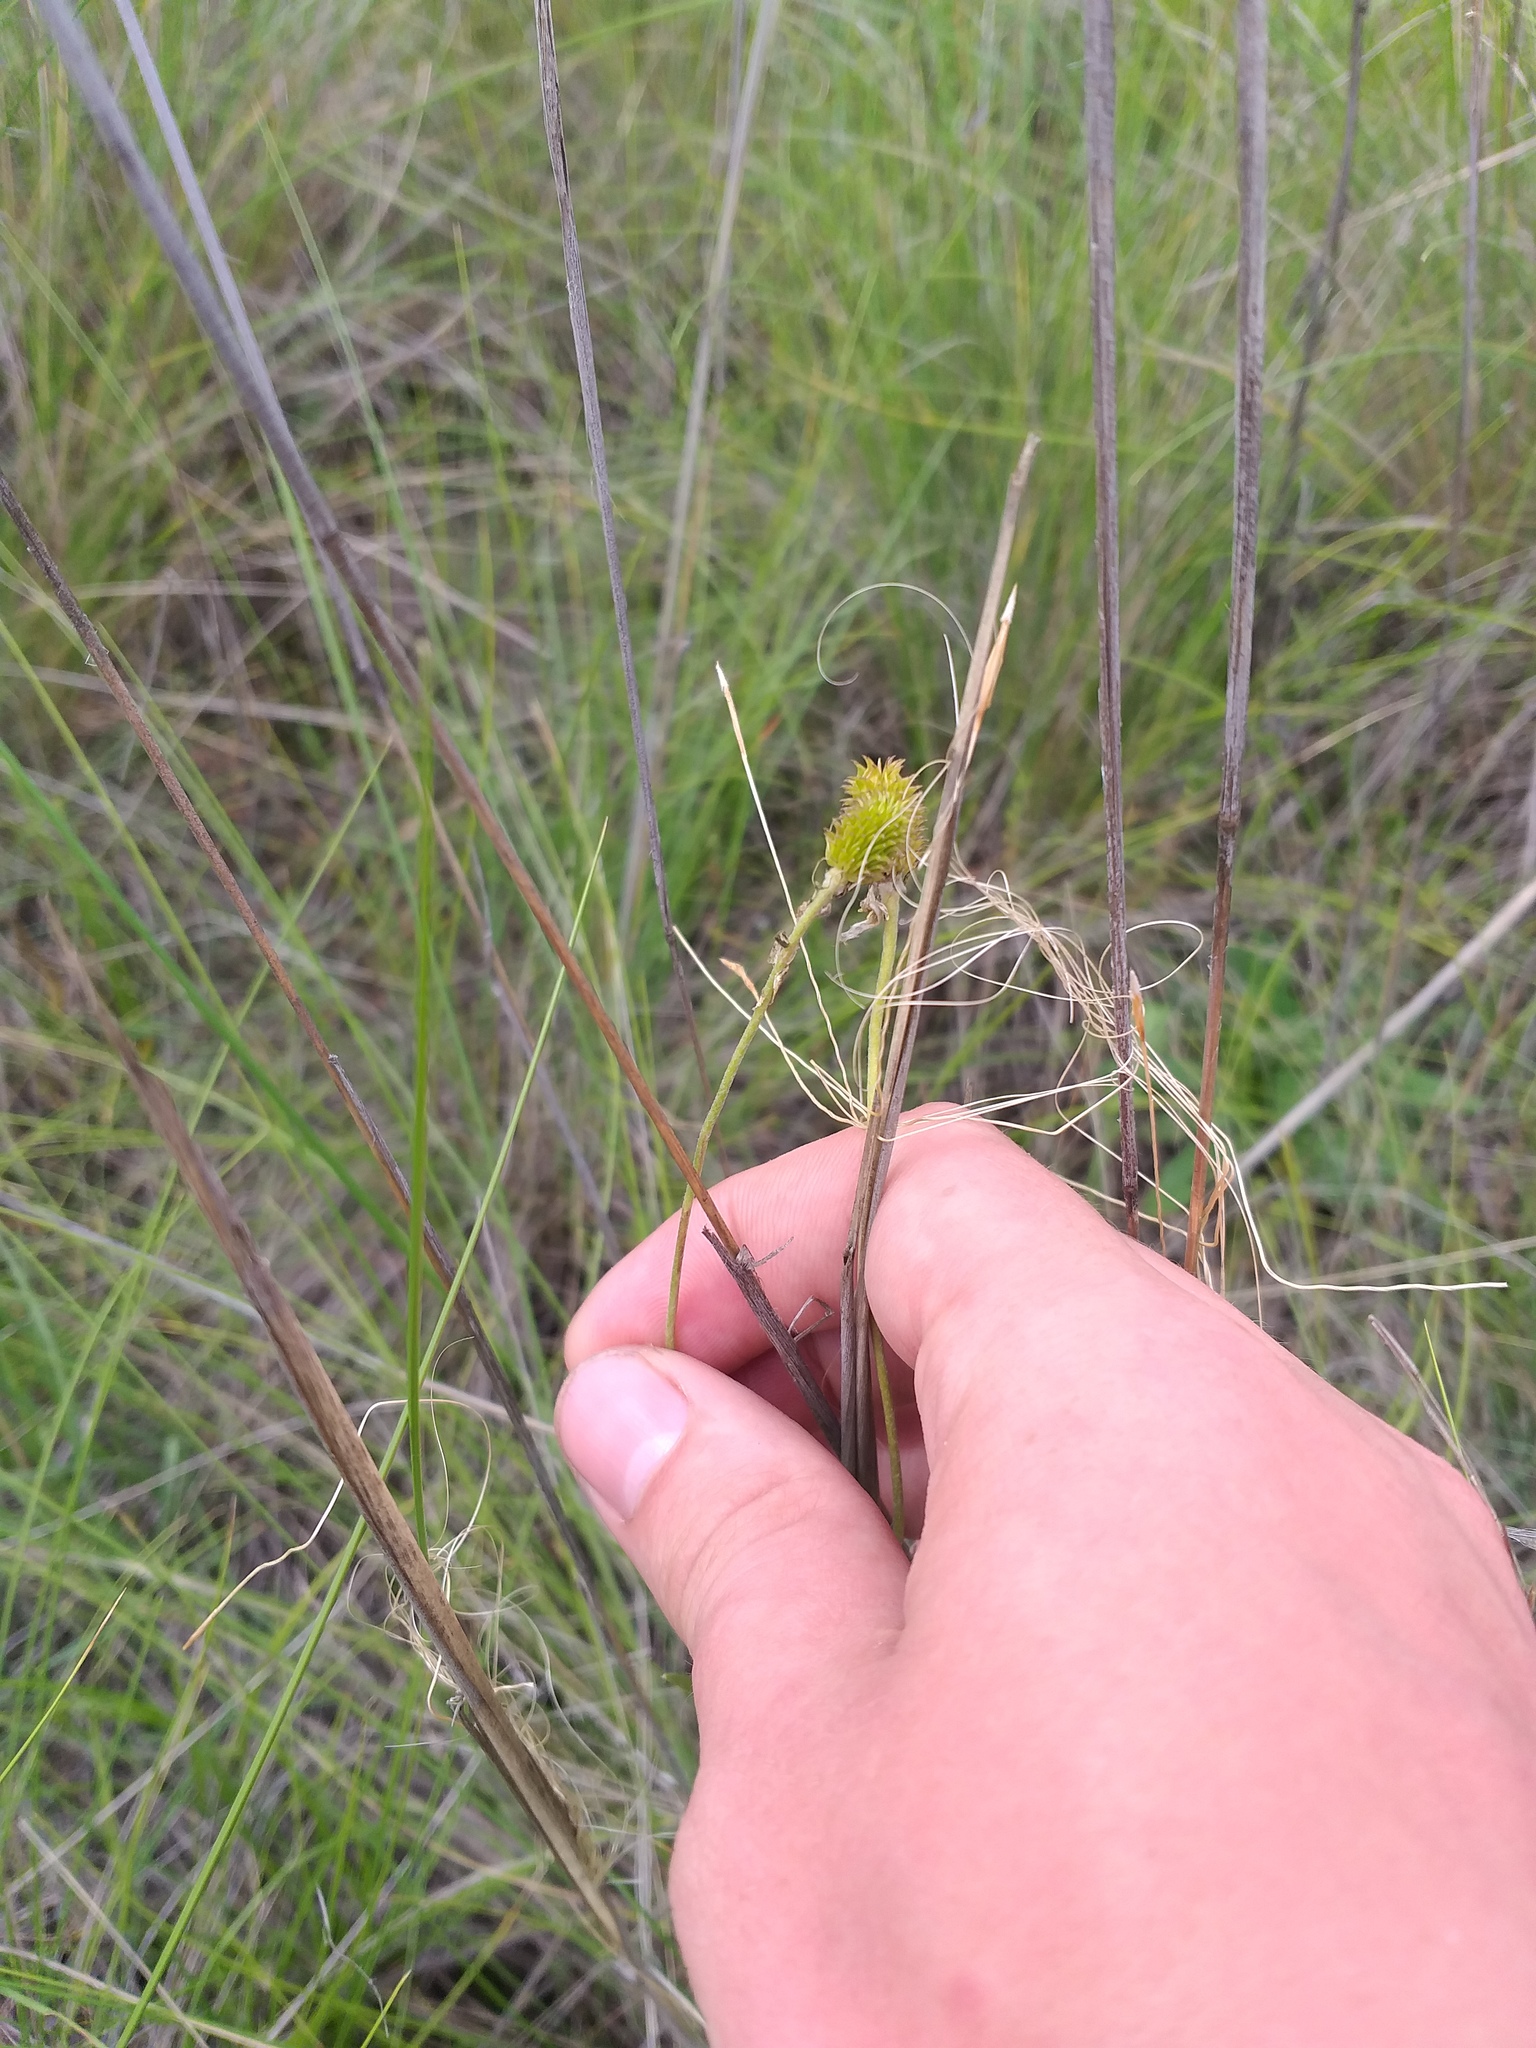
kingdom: Plantae
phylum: Tracheophyta
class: Magnoliopsida
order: Ranunculales
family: Ranunculaceae
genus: Ranunculus
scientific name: Ranunculus illyricus
